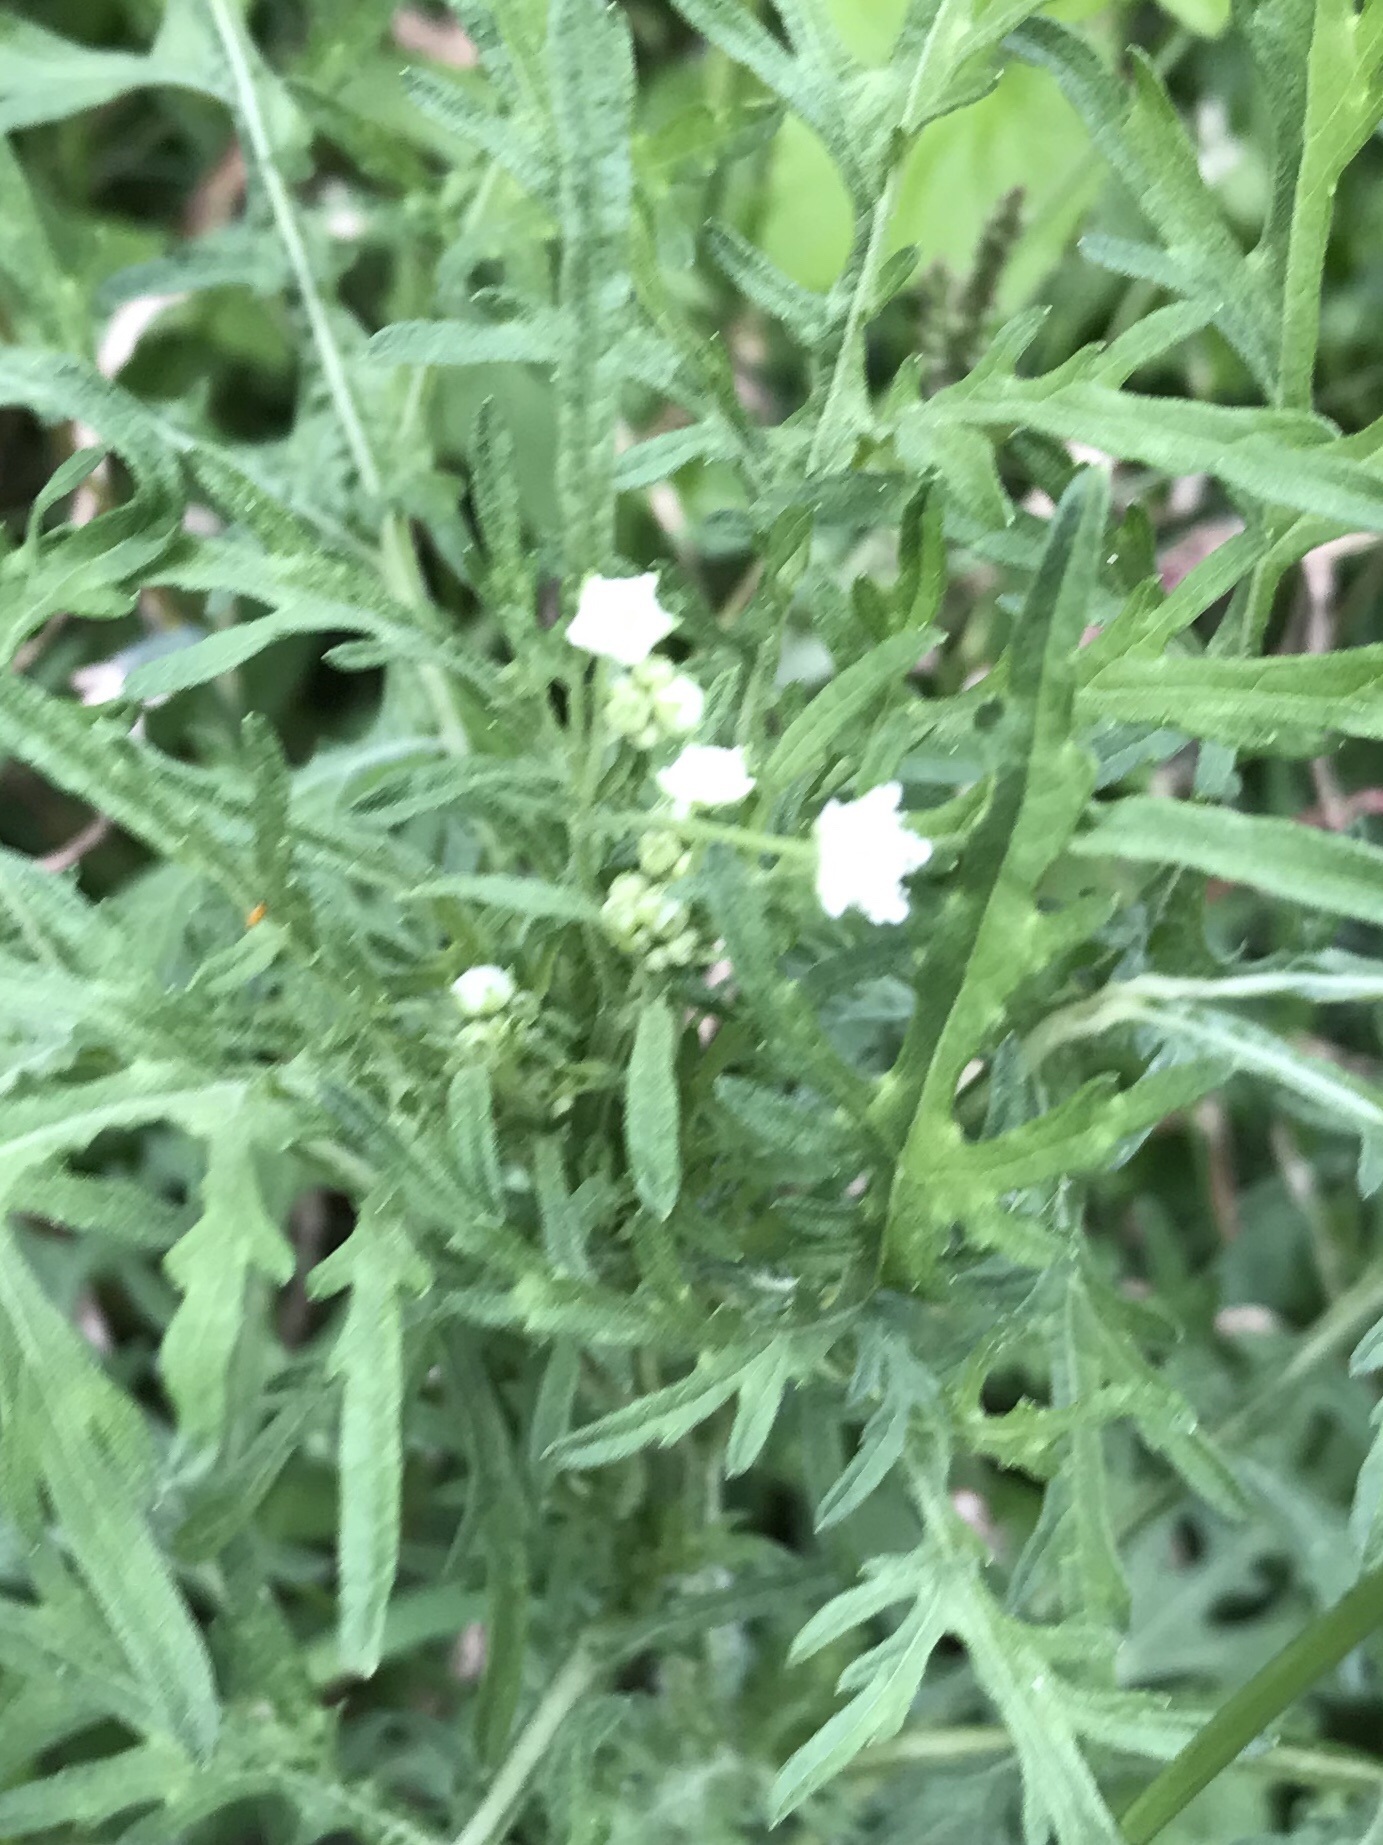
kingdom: Plantae
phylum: Tracheophyta
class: Magnoliopsida
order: Asterales
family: Asteraceae
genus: Parthenium
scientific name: Parthenium hysterophorus
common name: Santa maria feverfew
